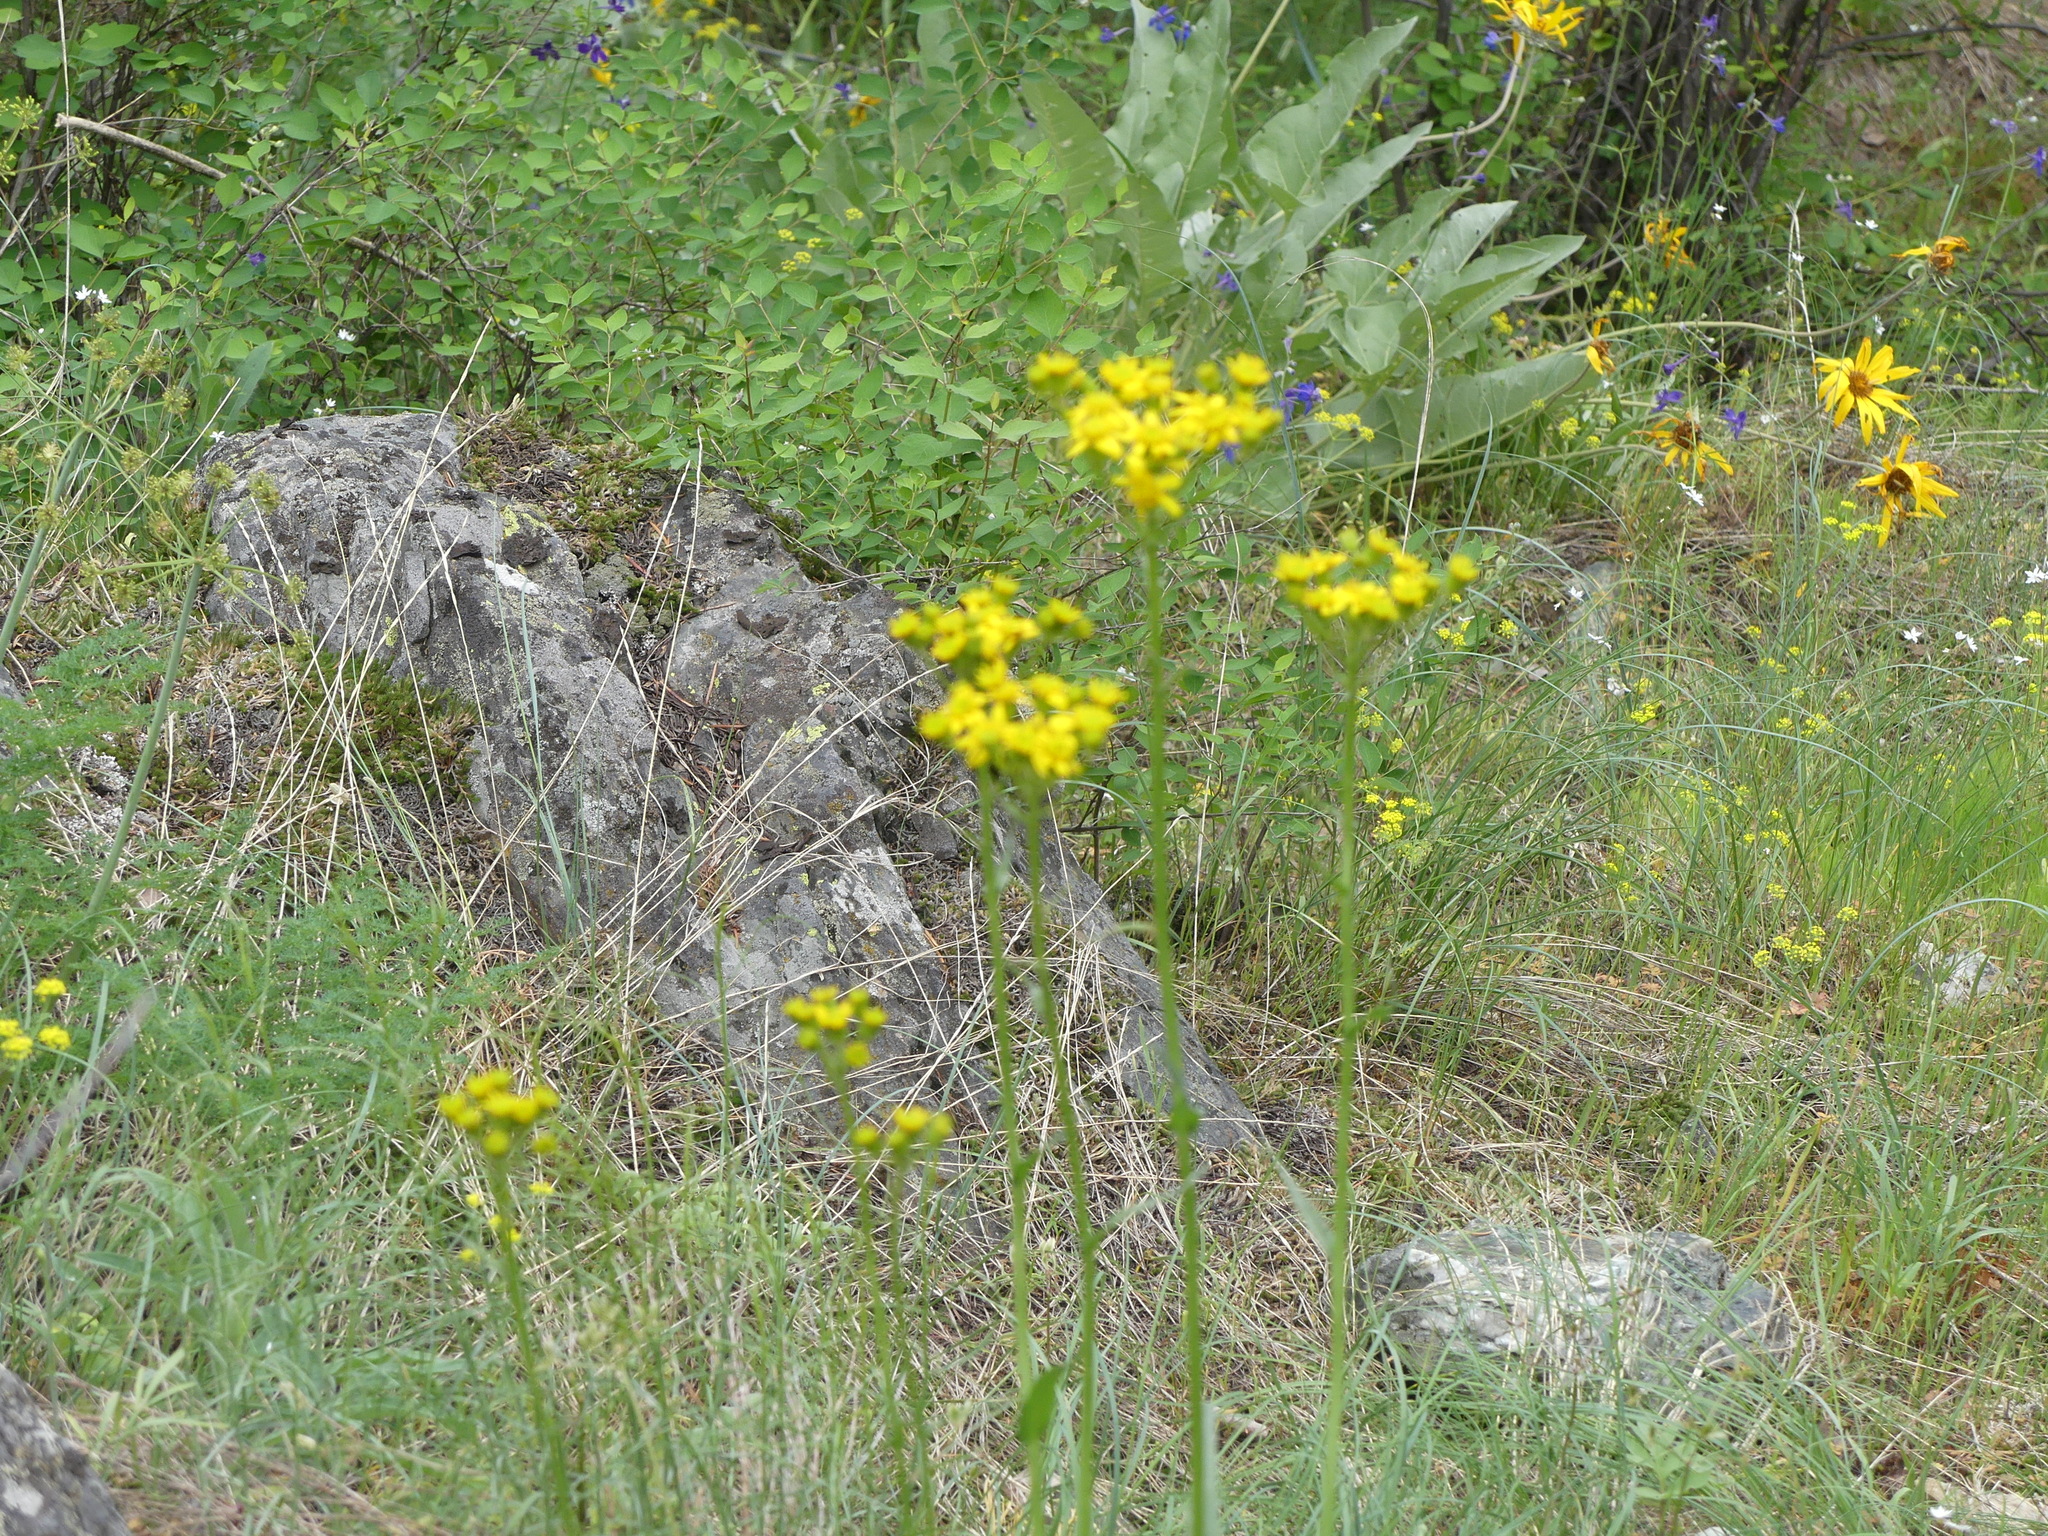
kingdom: Plantae
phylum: Tracheophyta
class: Magnoliopsida
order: Asterales
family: Asteraceae
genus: Senecio
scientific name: Senecio integerrimus
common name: Gaugeplant
